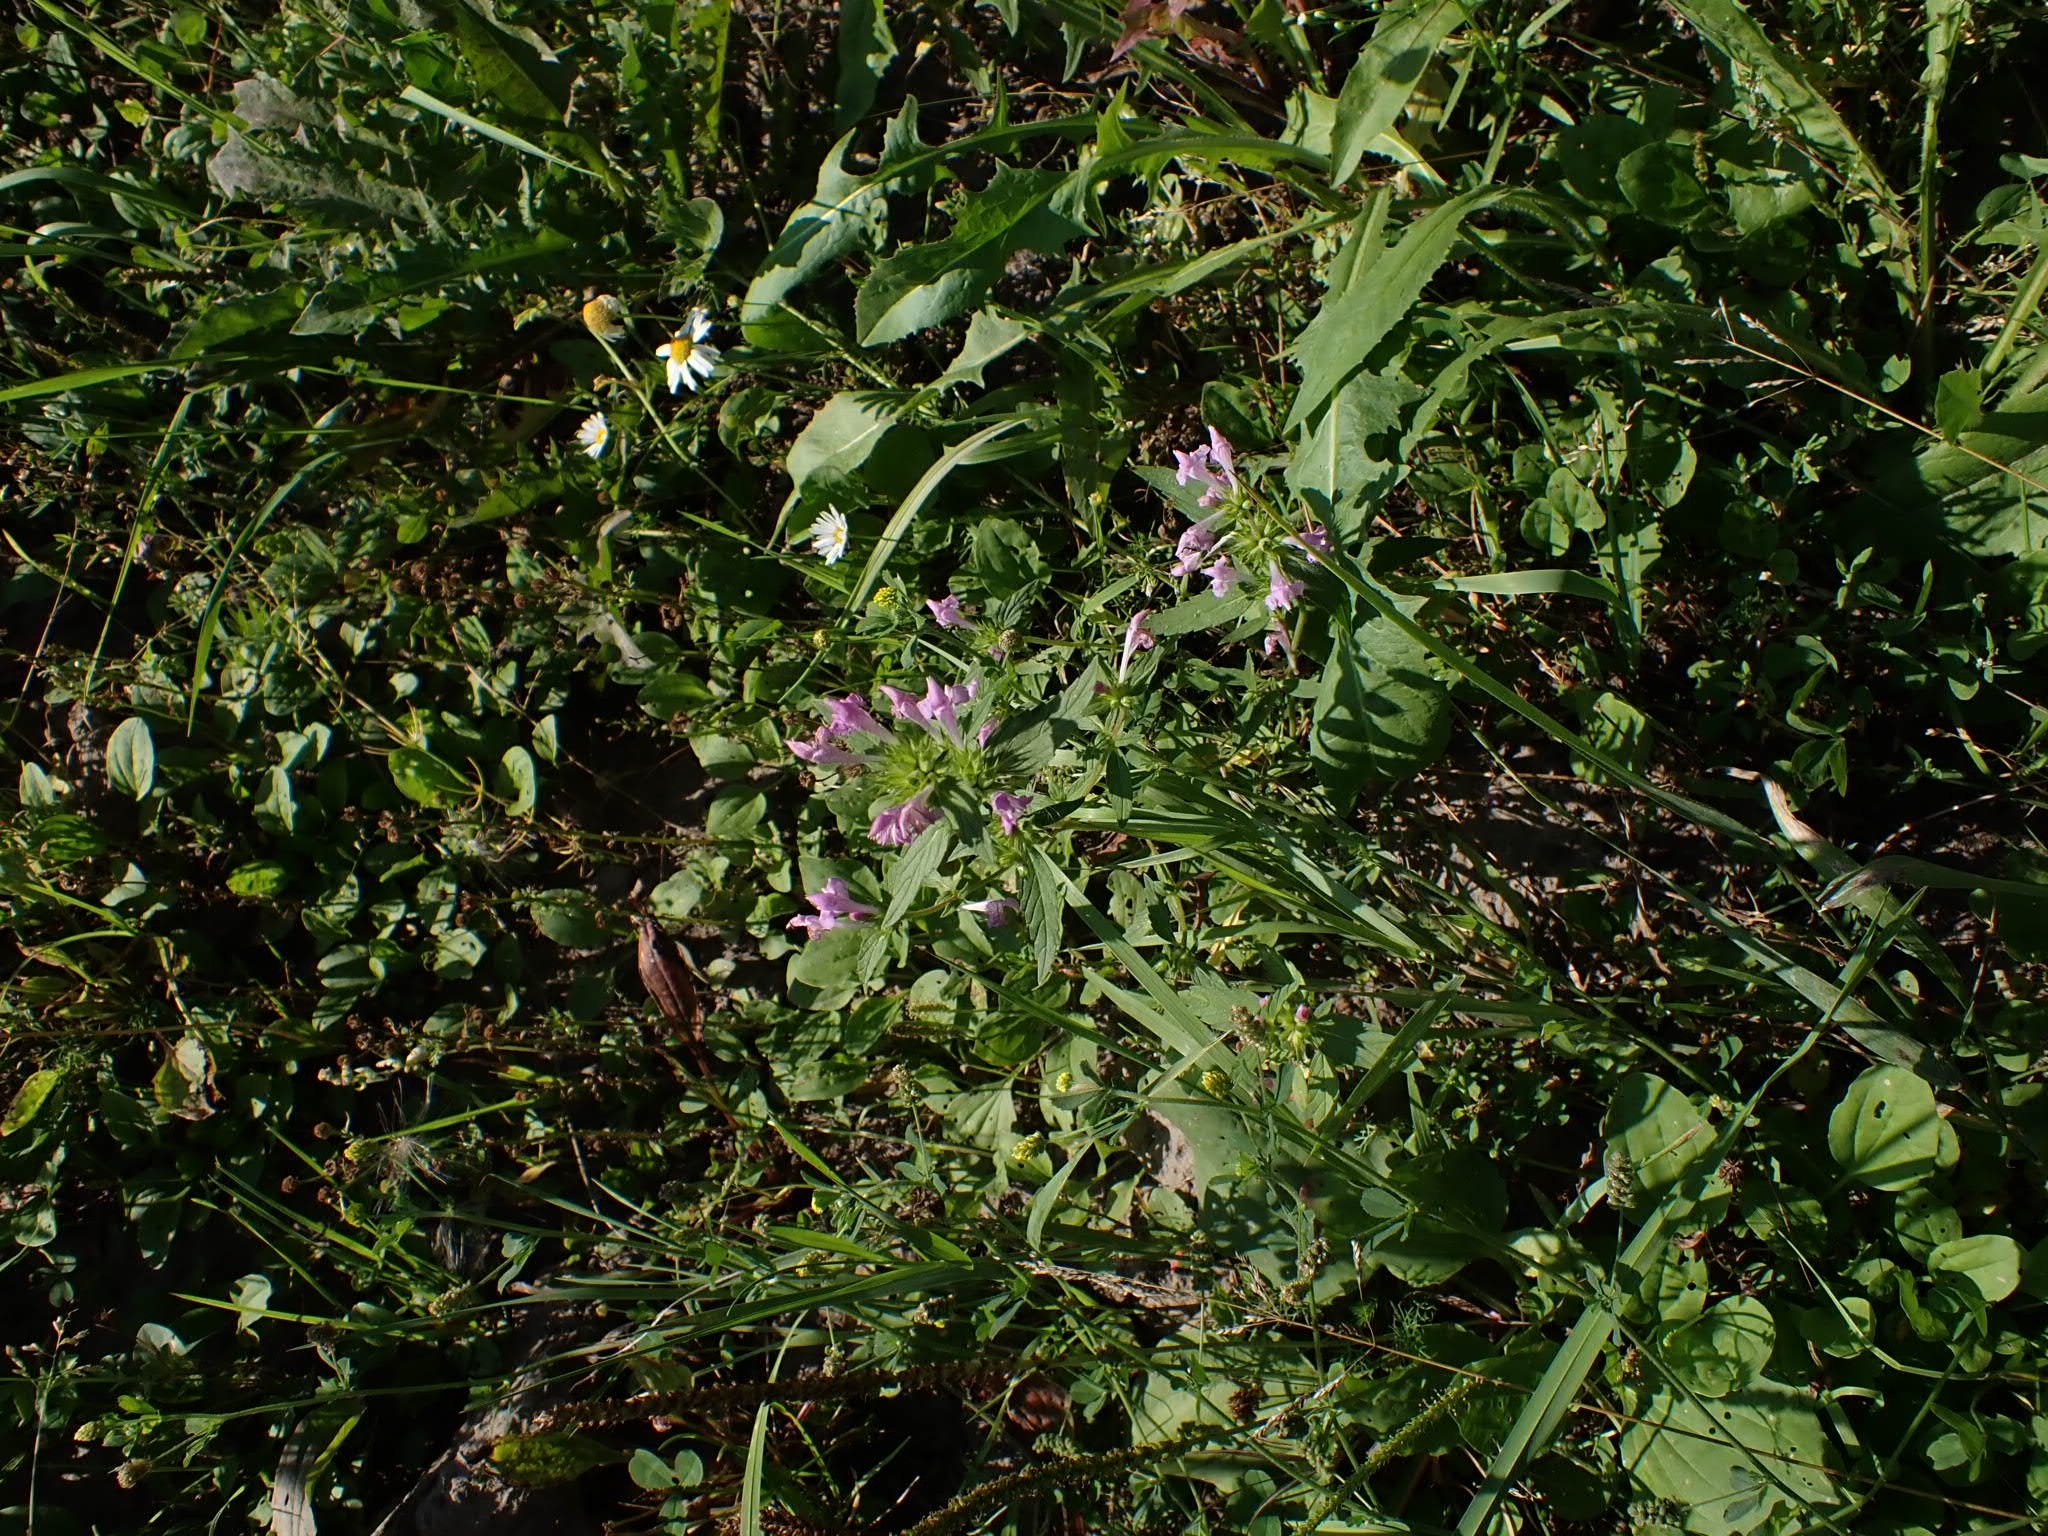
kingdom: Plantae
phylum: Tracheophyta
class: Magnoliopsida
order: Lamiales
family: Lamiaceae
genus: Galeopsis
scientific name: Galeopsis ladanum
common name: Broad-leaved hemp-nettle
